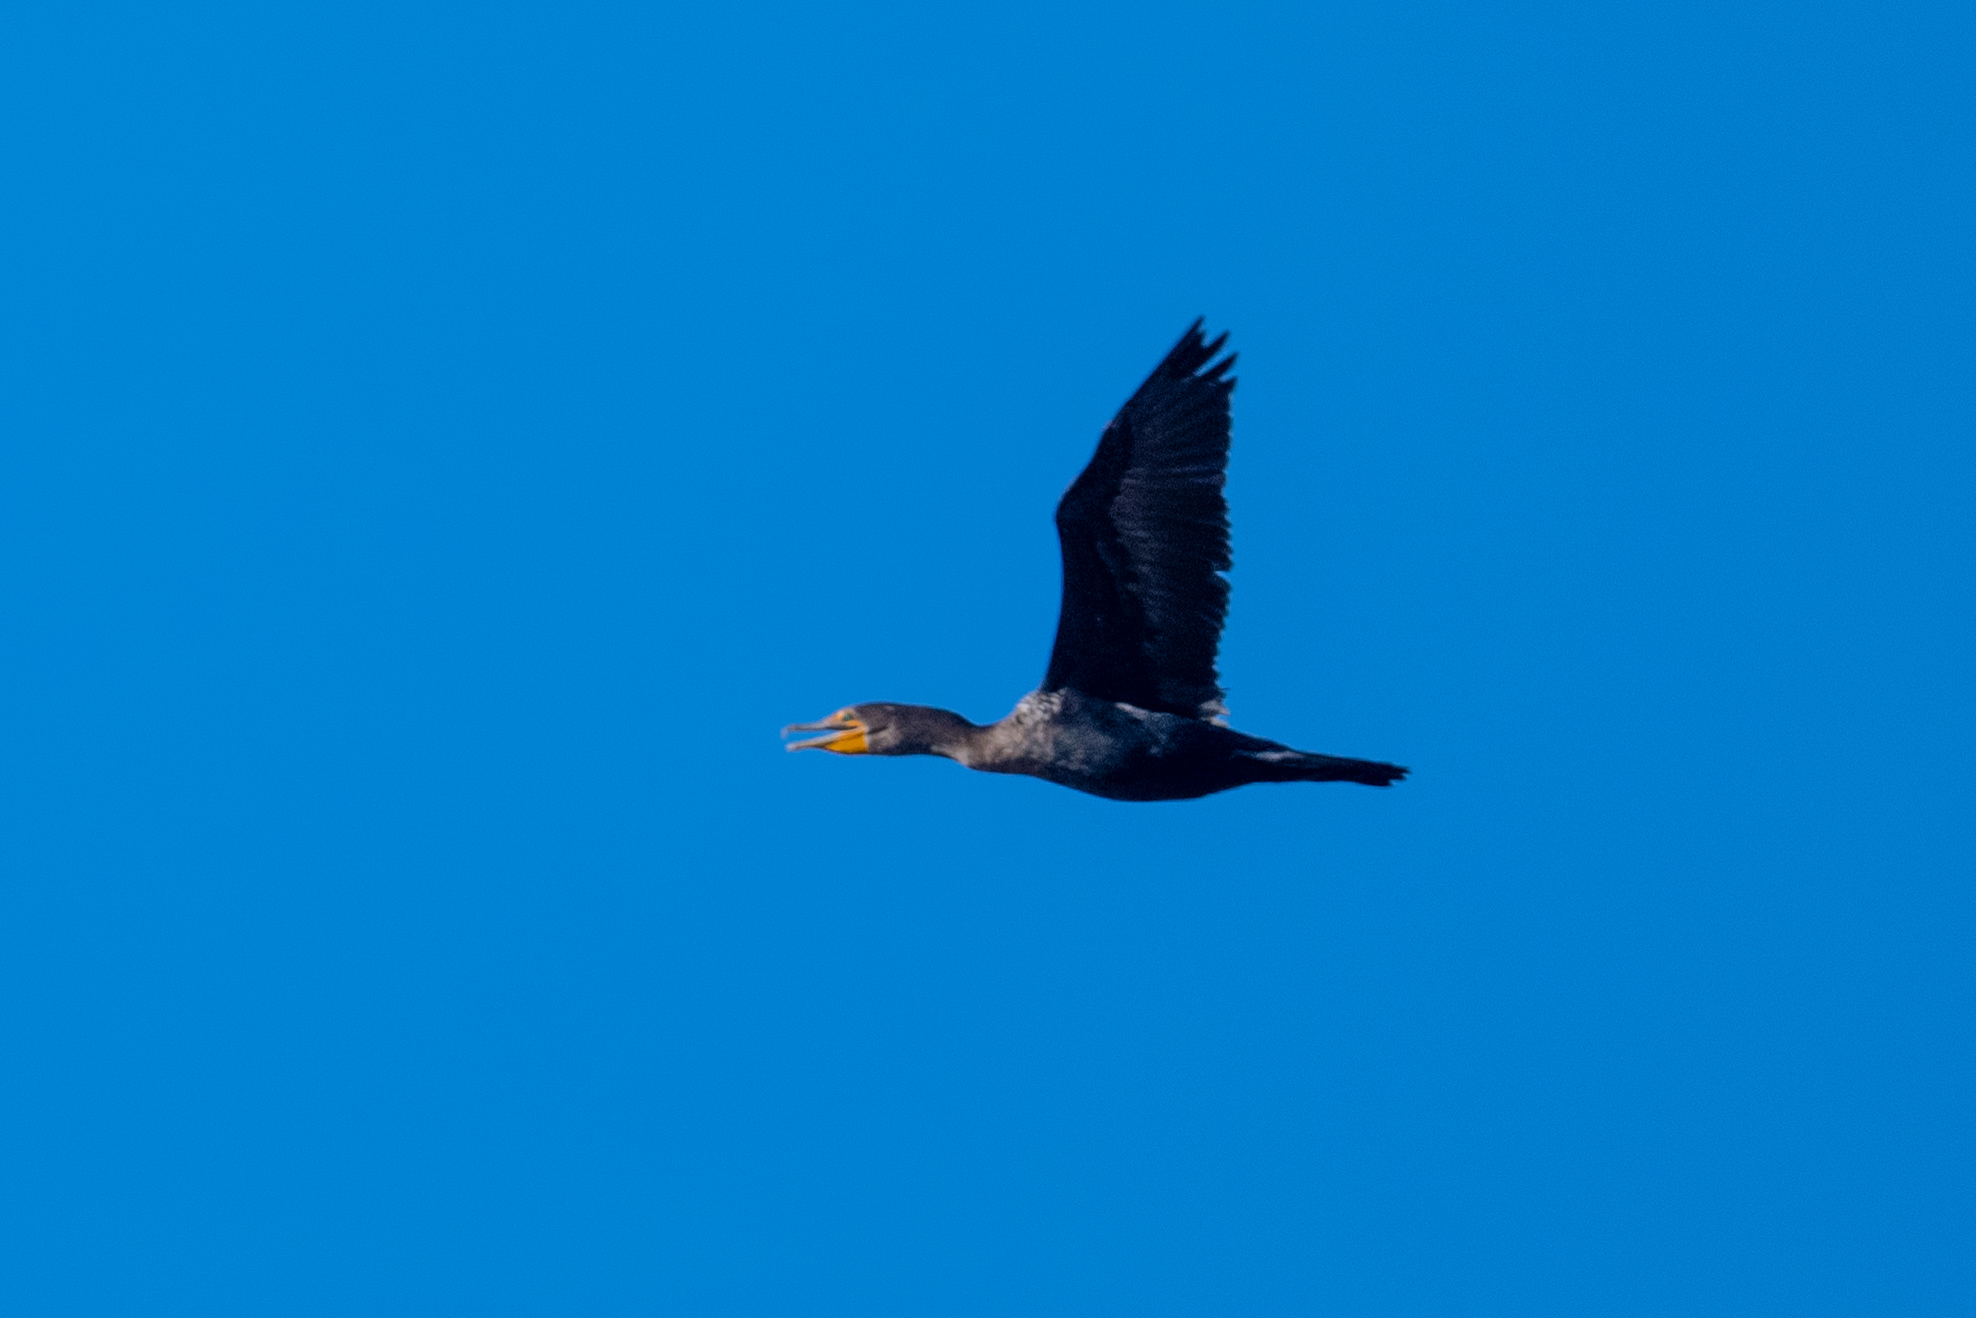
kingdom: Animalia
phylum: Chordata
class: Aves
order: Suliformes
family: Phalacrocoracidae
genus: Phalacrocorax
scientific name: Phalacrocorax auritus
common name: Double-crested cormorant
